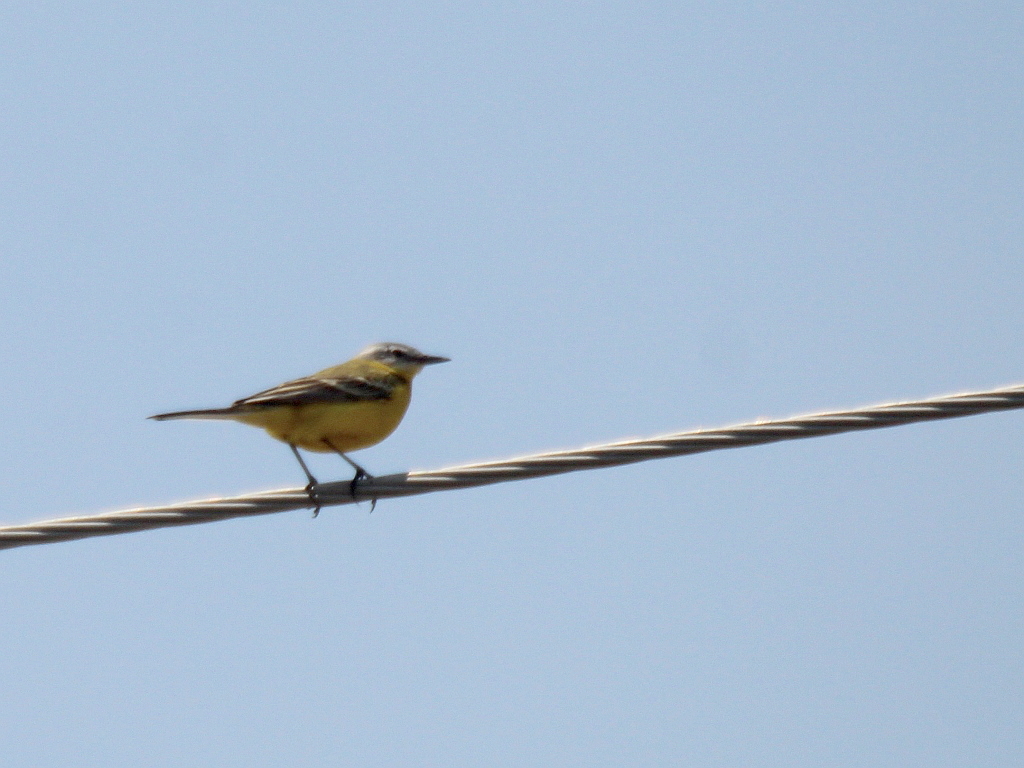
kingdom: Animalia
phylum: Chordata
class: Aves
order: Passeriformes
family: Motacillidae
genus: Motacilla
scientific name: Motacilla flava
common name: Western yellow wagtail
